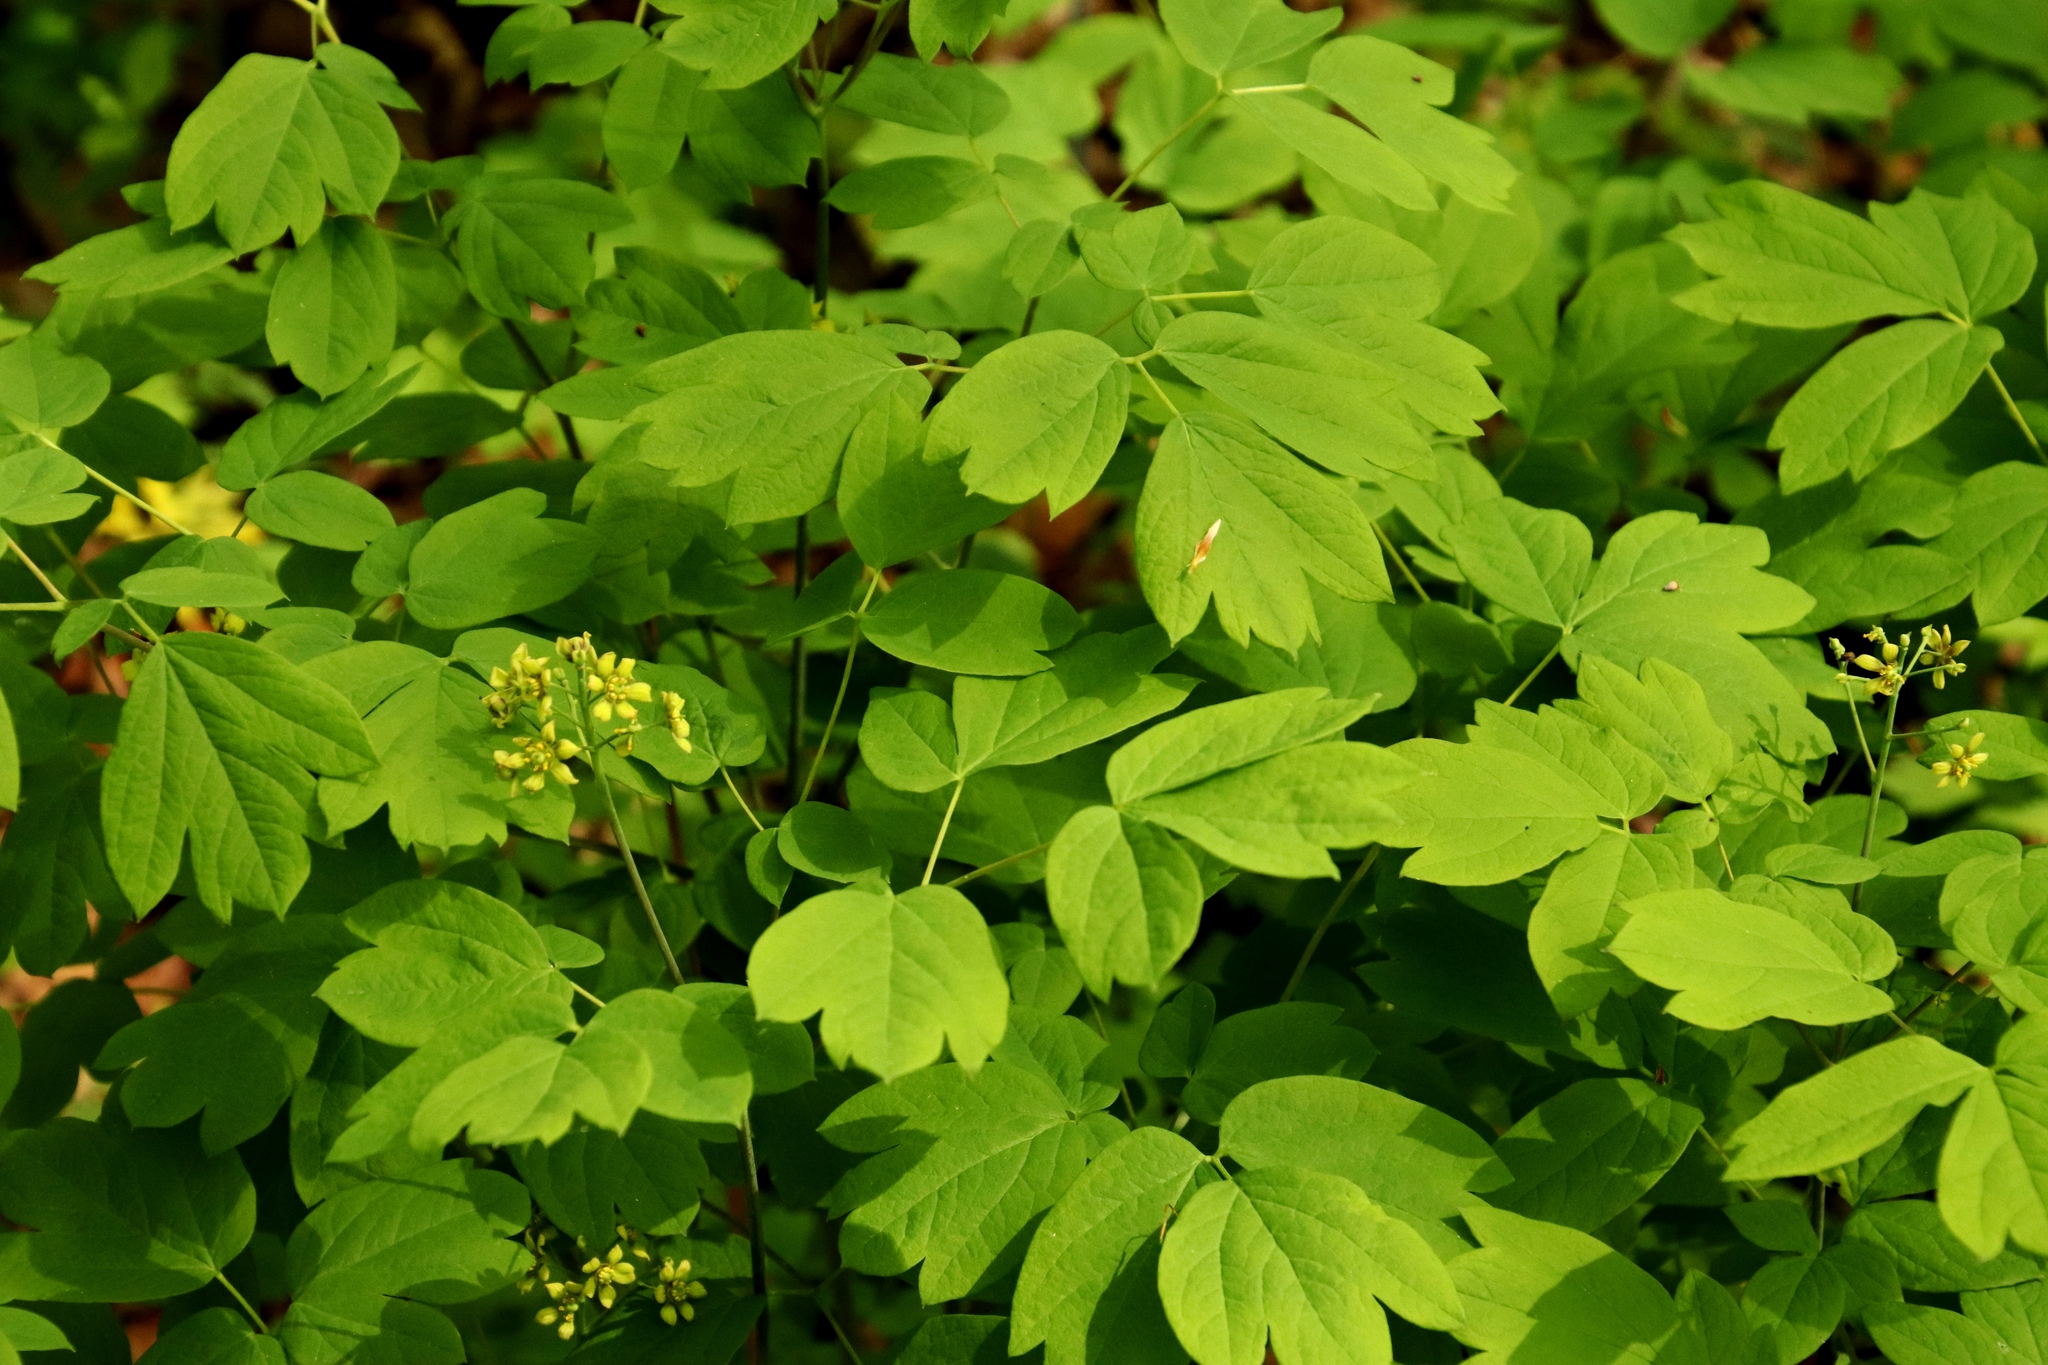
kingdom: Plantae
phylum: Tracheophyta
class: Magnoliopsida
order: Ranunculales
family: Berberidaceae
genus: Caulophyllum
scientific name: Caulophyllum thalictroides
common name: Blue cohosh
